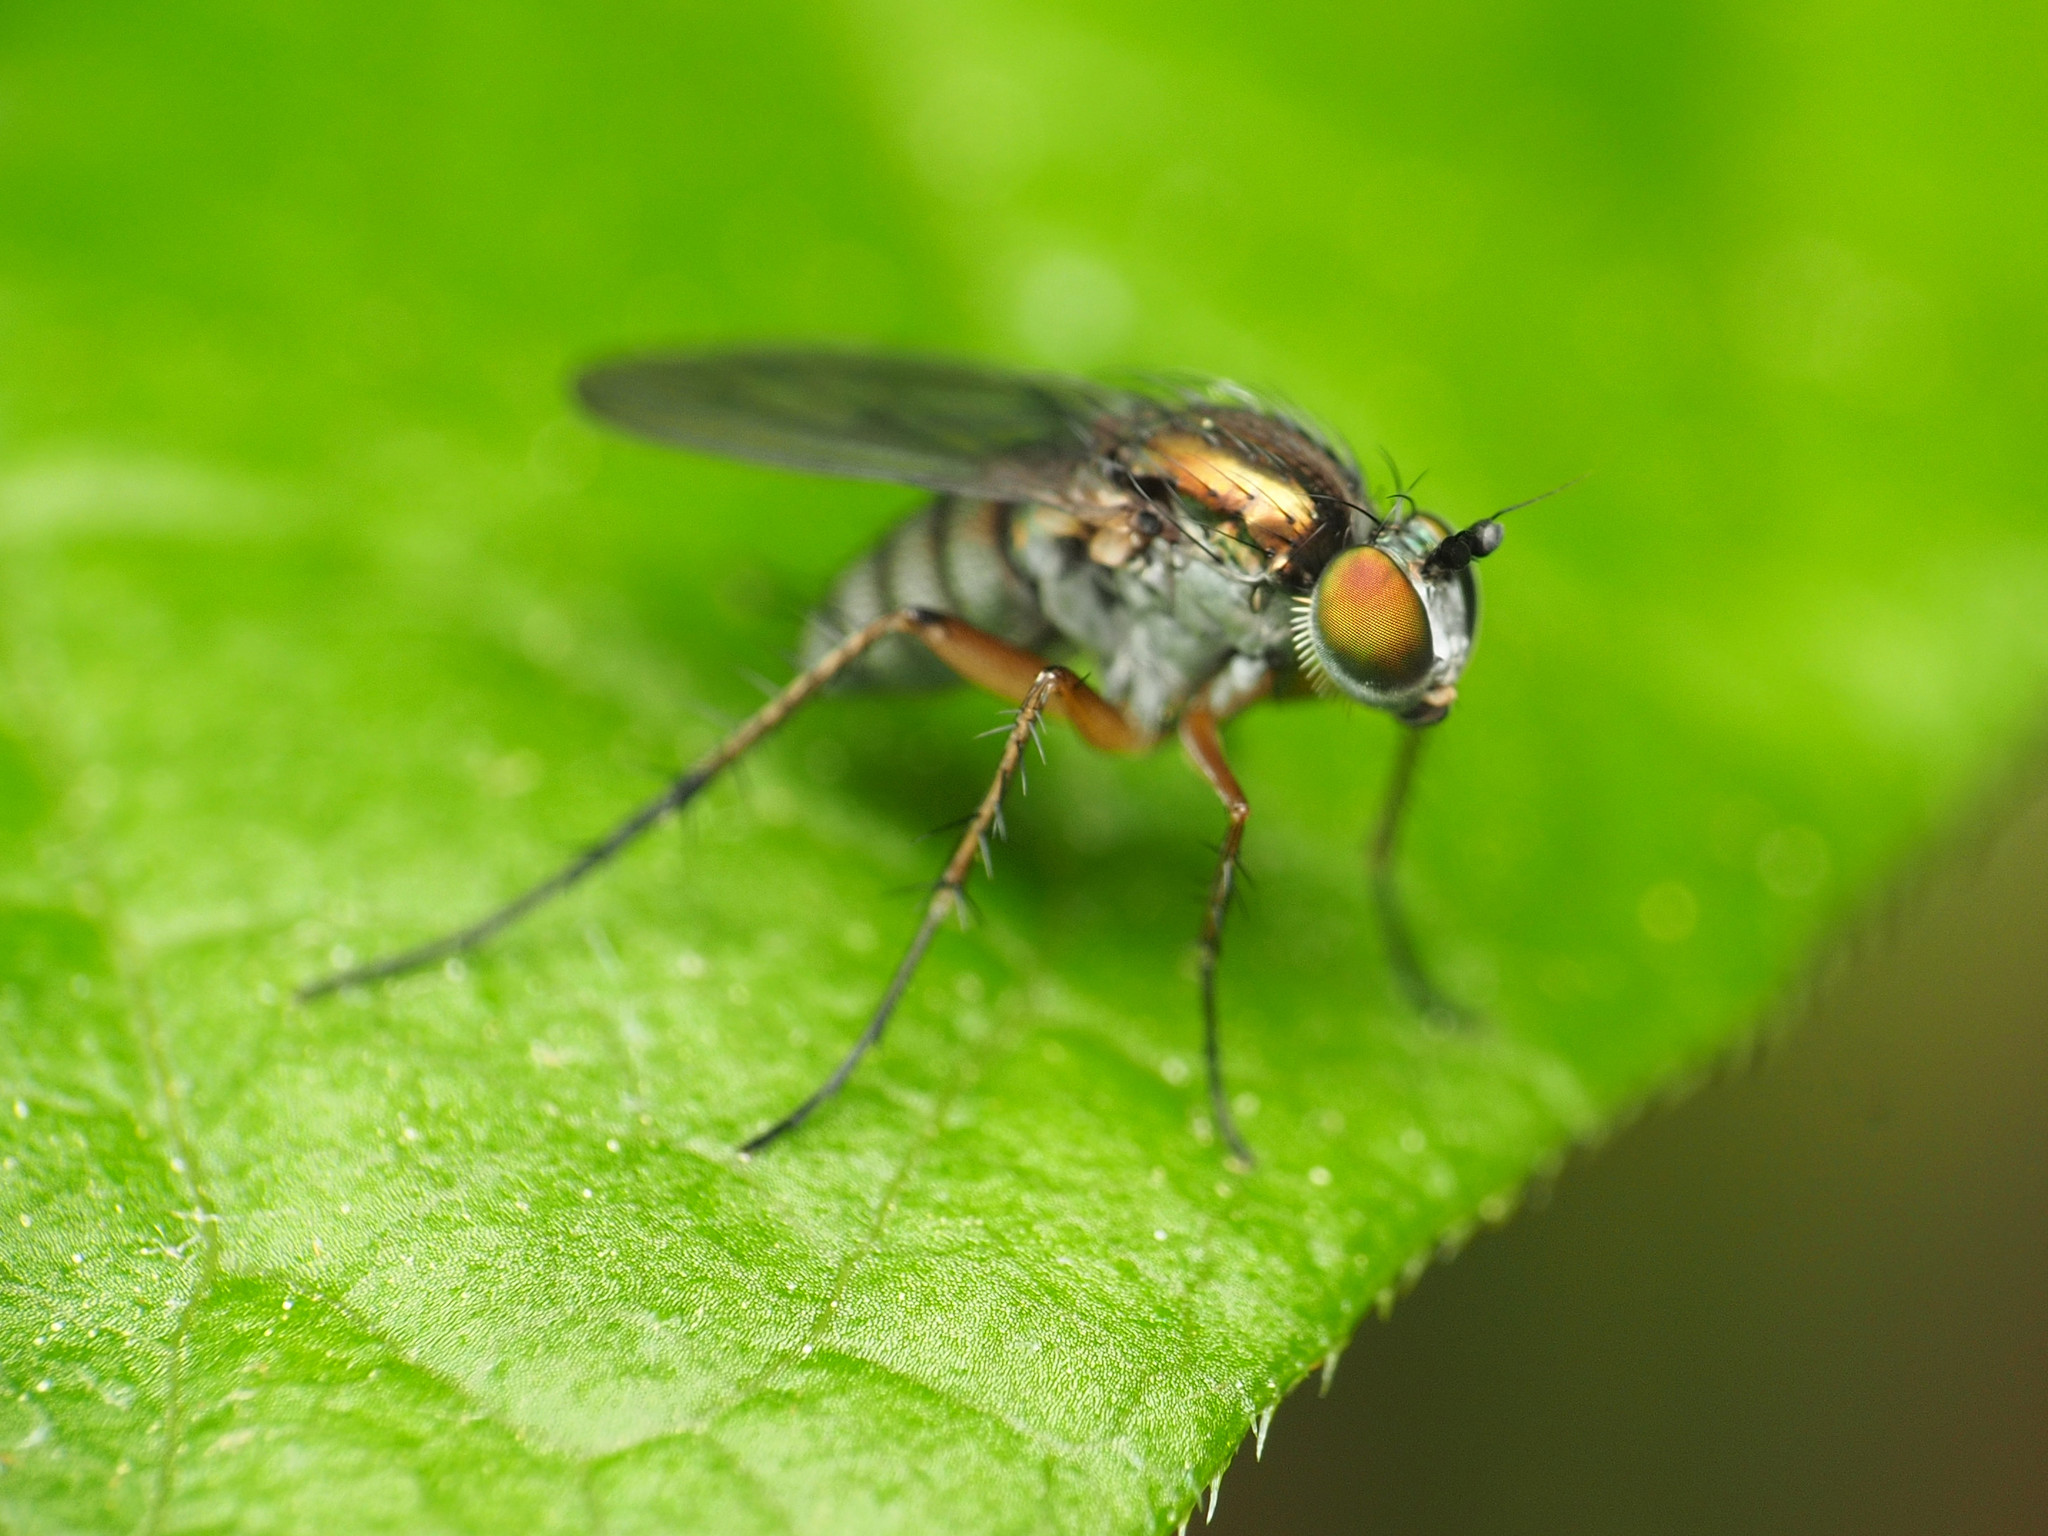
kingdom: Animalia
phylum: Arthropoda
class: Insecta
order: Diptera
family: Dolichopodidae
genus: Dolichopus
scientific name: Dolichopus comatus
